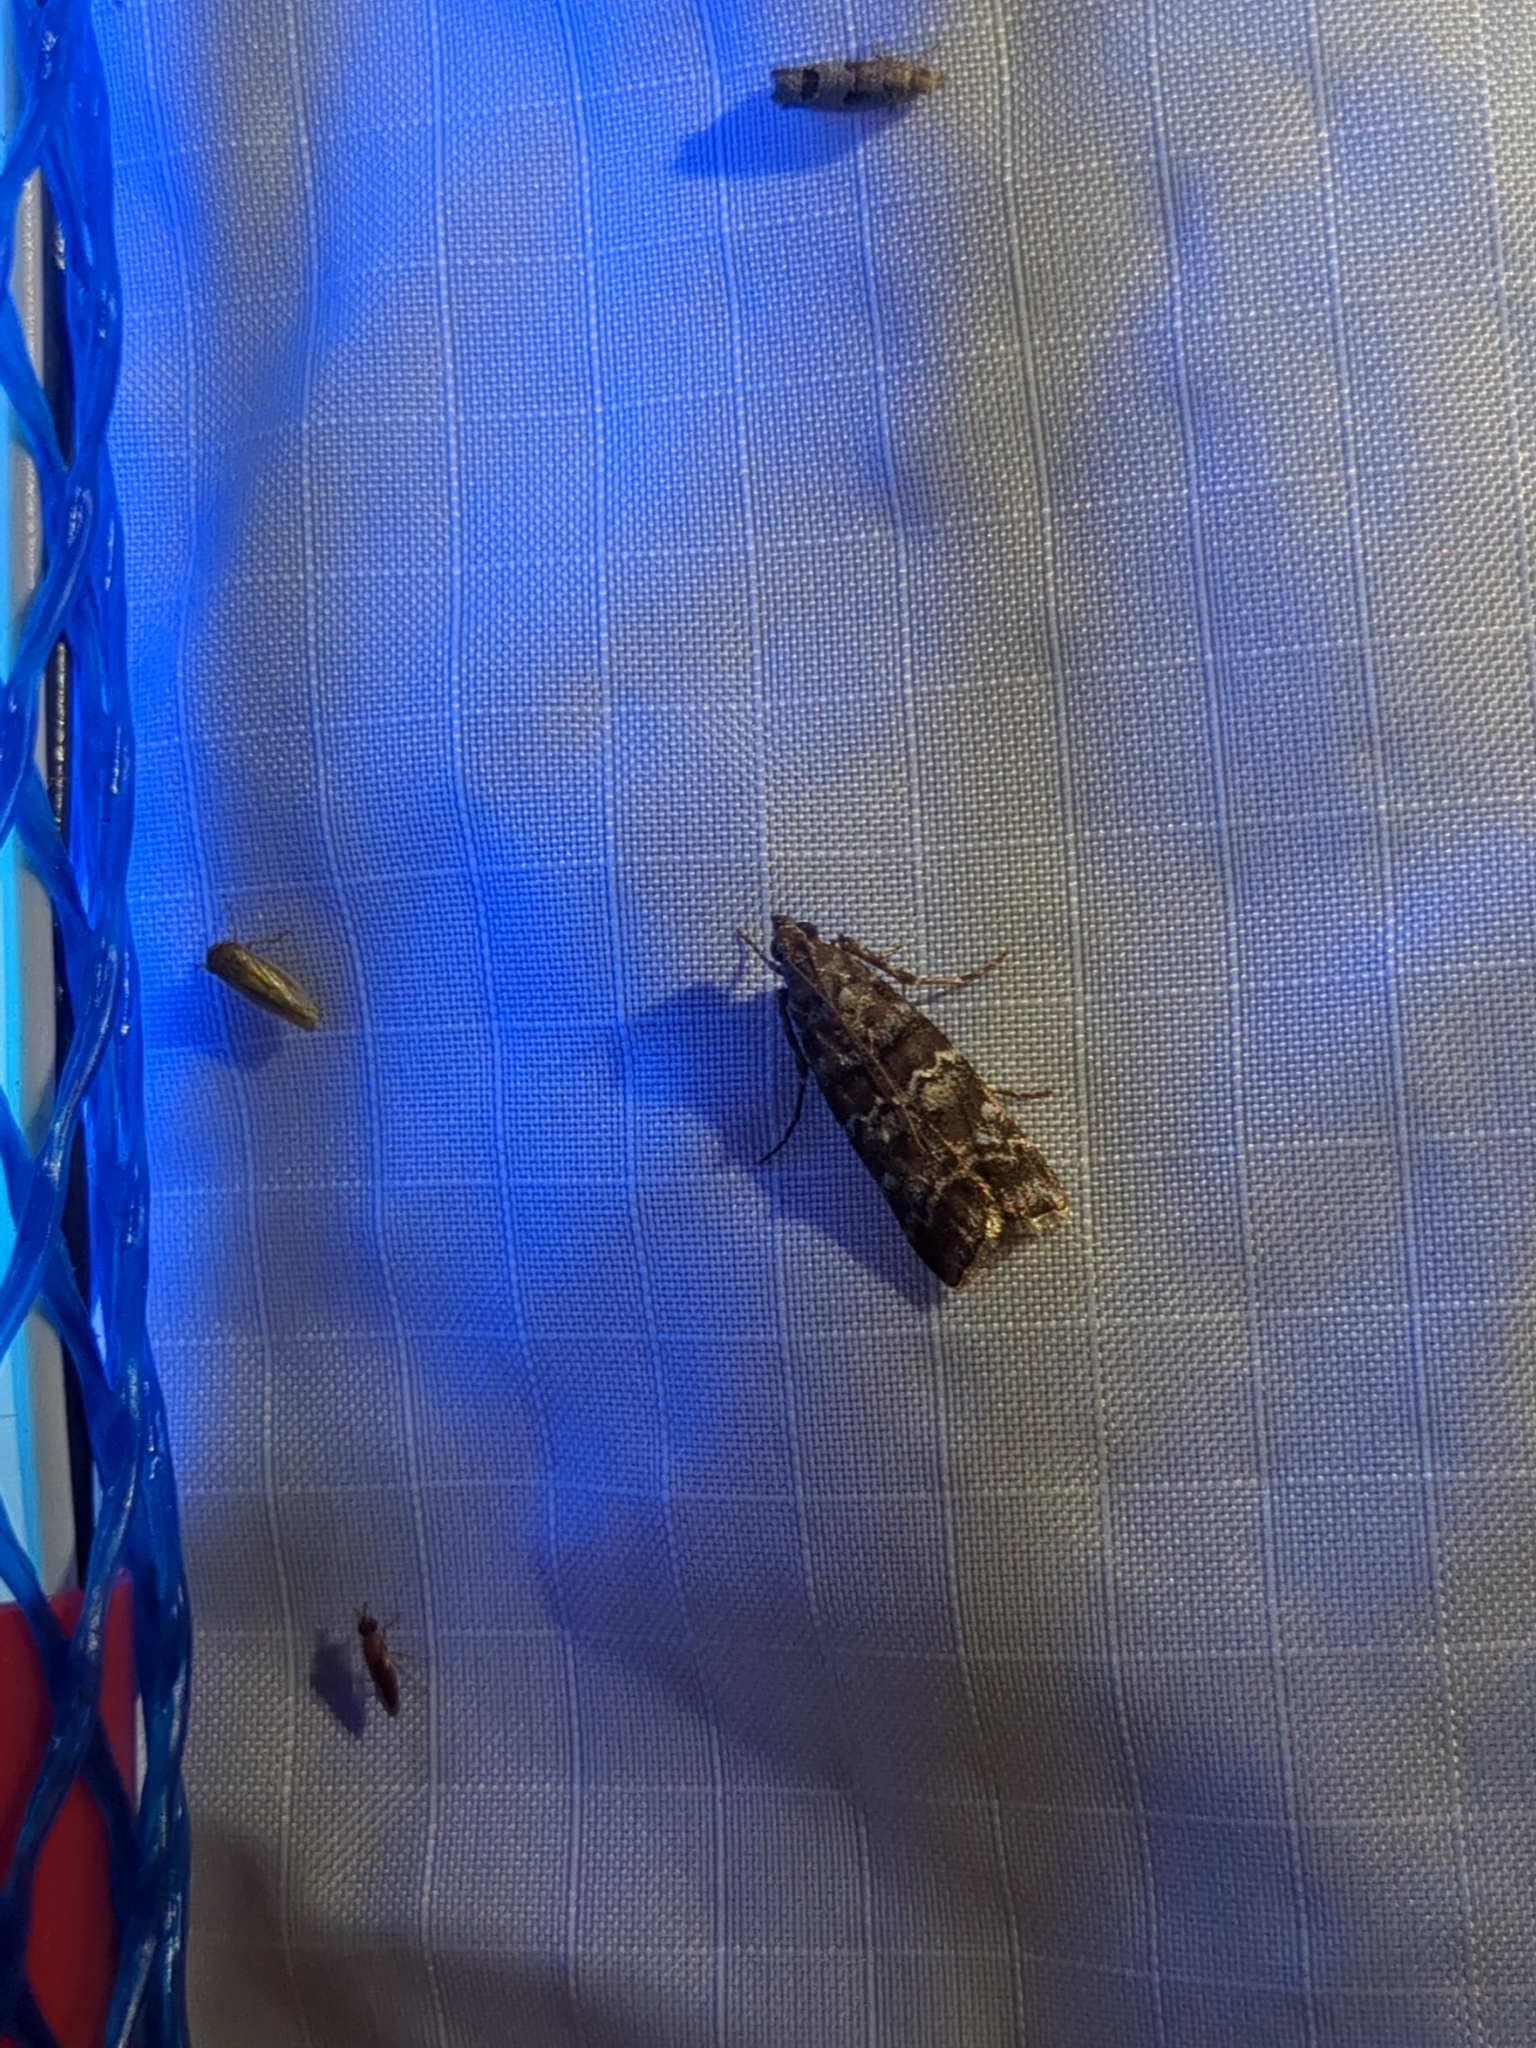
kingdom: Animalia
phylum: Arthropoda
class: Insecta
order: Lepidoptera
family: Pyralidae
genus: Dioryctria
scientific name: Dioryctria amatella
